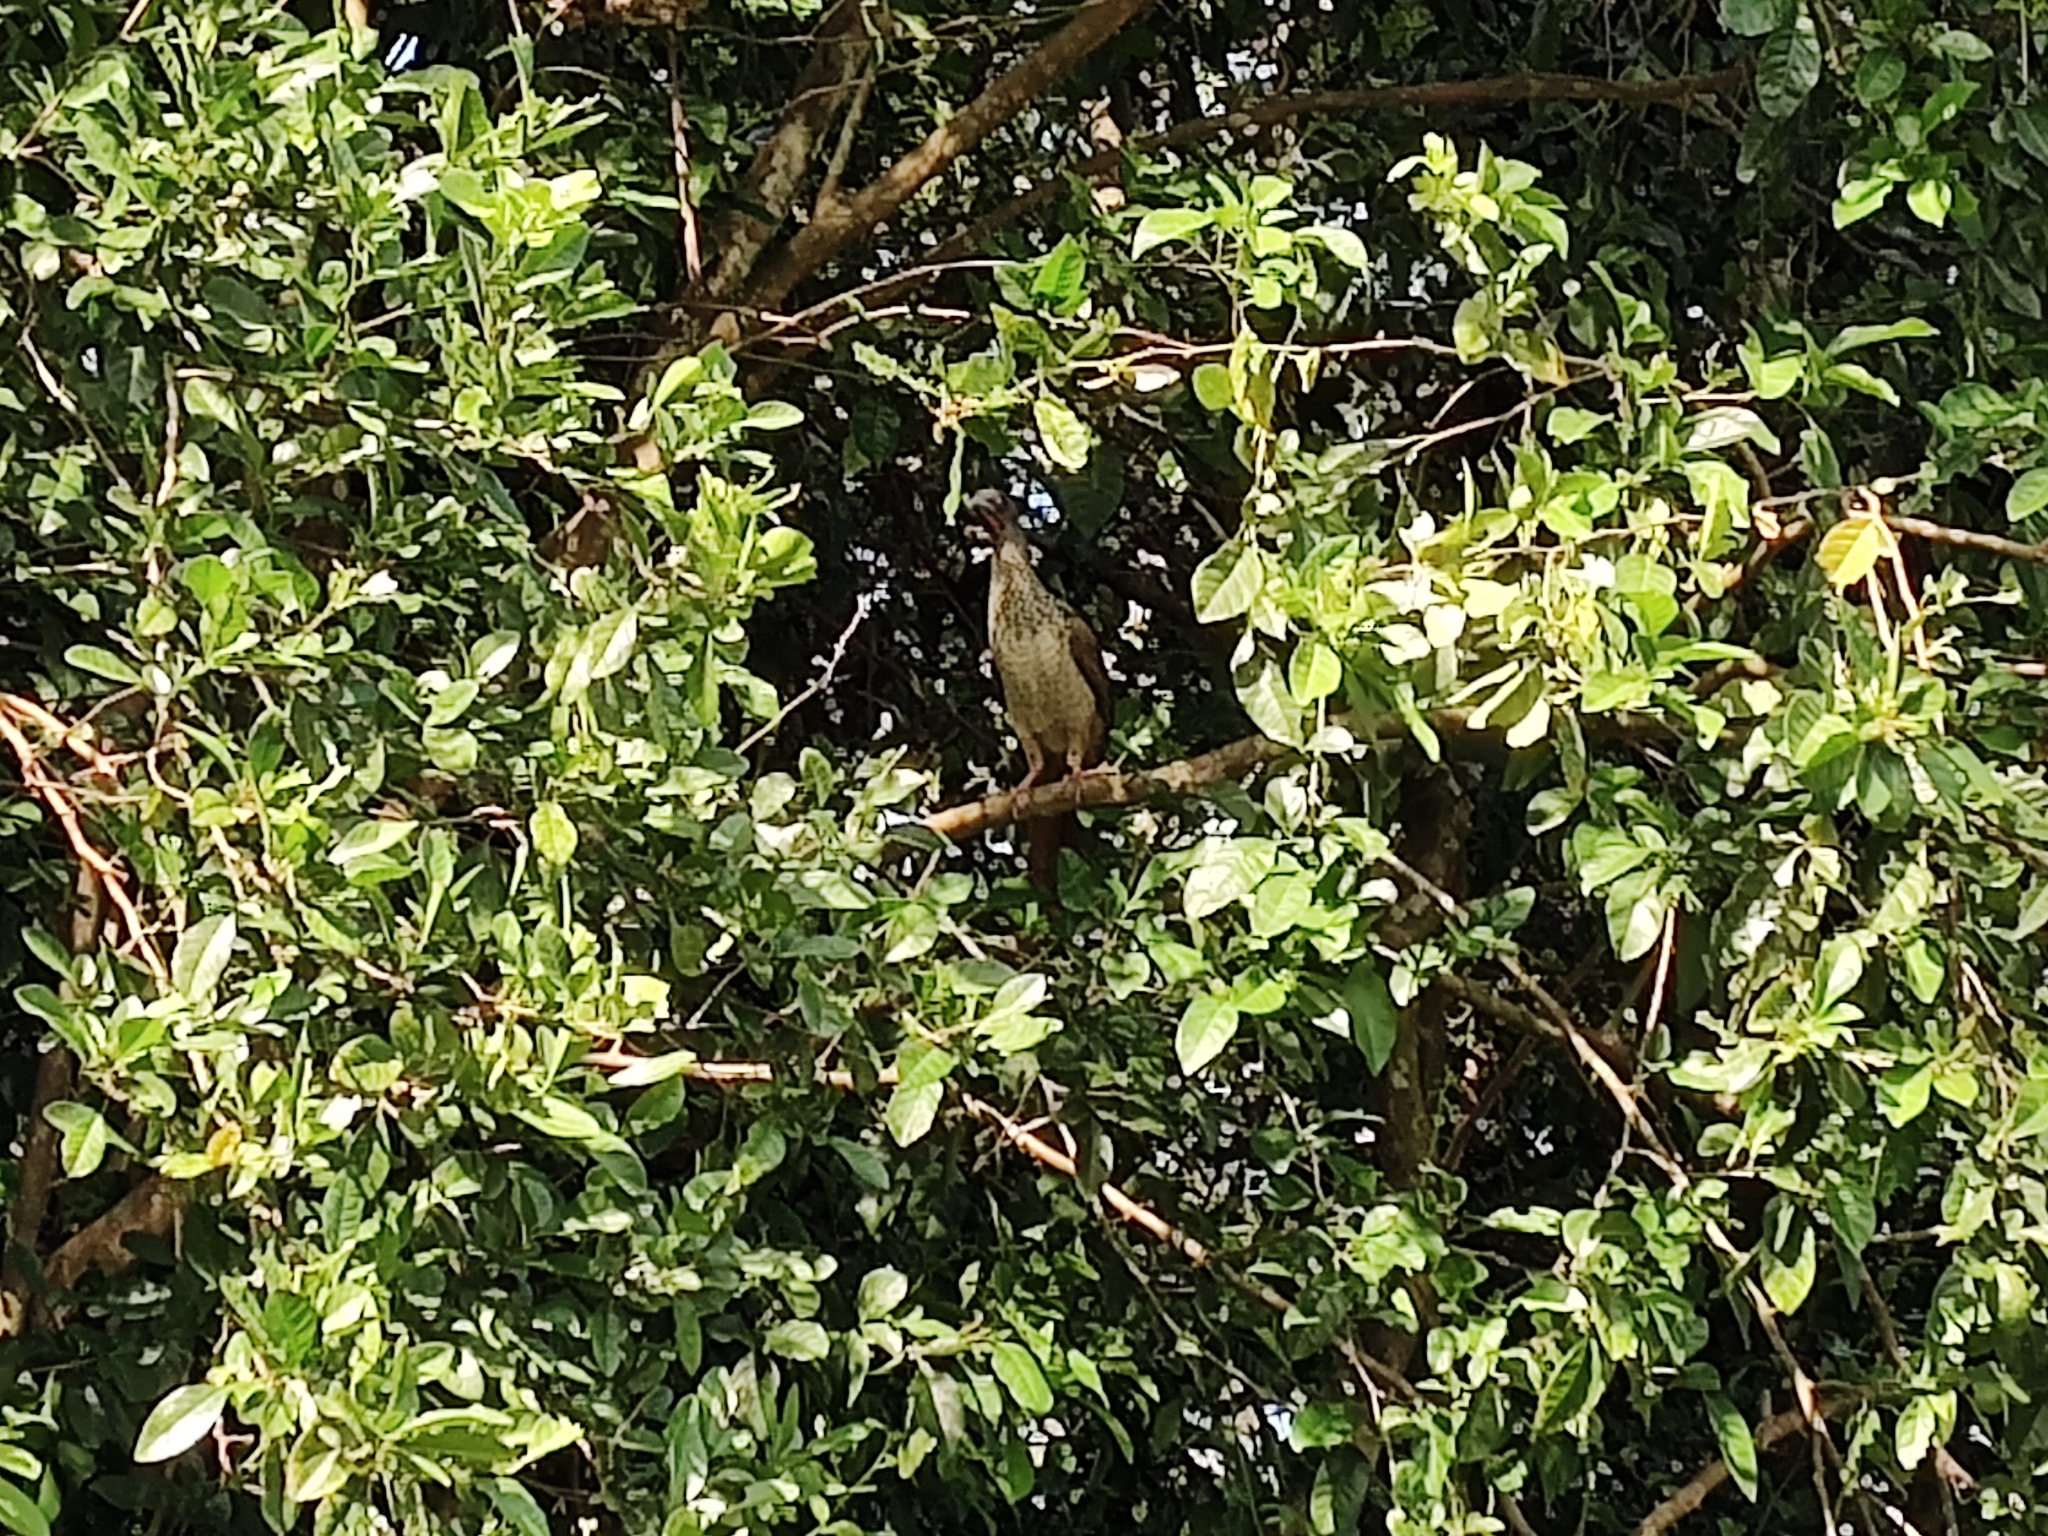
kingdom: Animalia
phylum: Chordata
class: Aves
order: Galliformes
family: Cracidae
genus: Ortalis
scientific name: Ortalis guttata
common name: Speckled chachalaca
